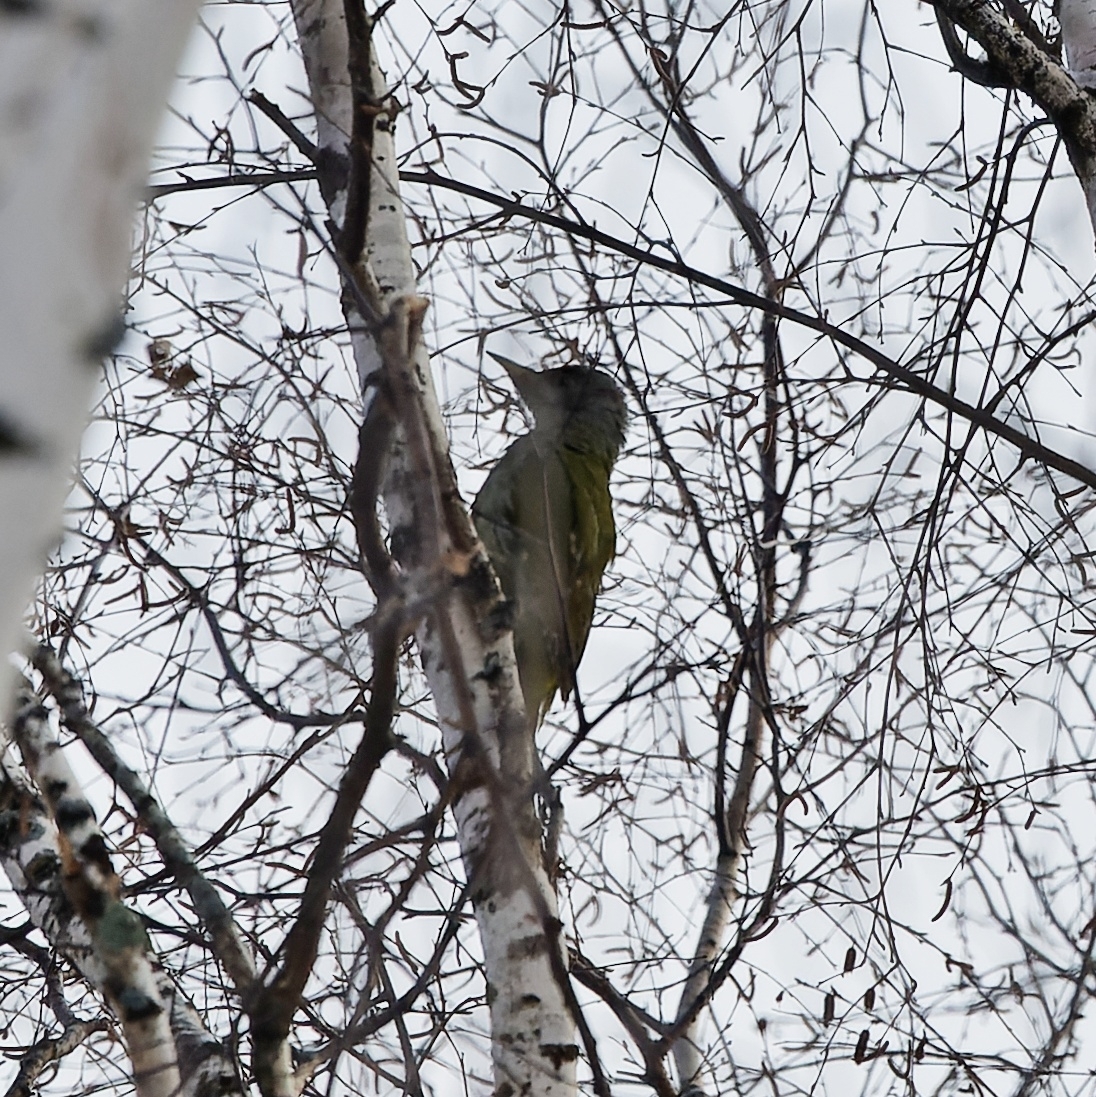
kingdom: Animalia
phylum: Chordata
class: Aves
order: Piciformes
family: Picidae
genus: Picus
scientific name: Picus canus
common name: Grey-headed woodpecker
